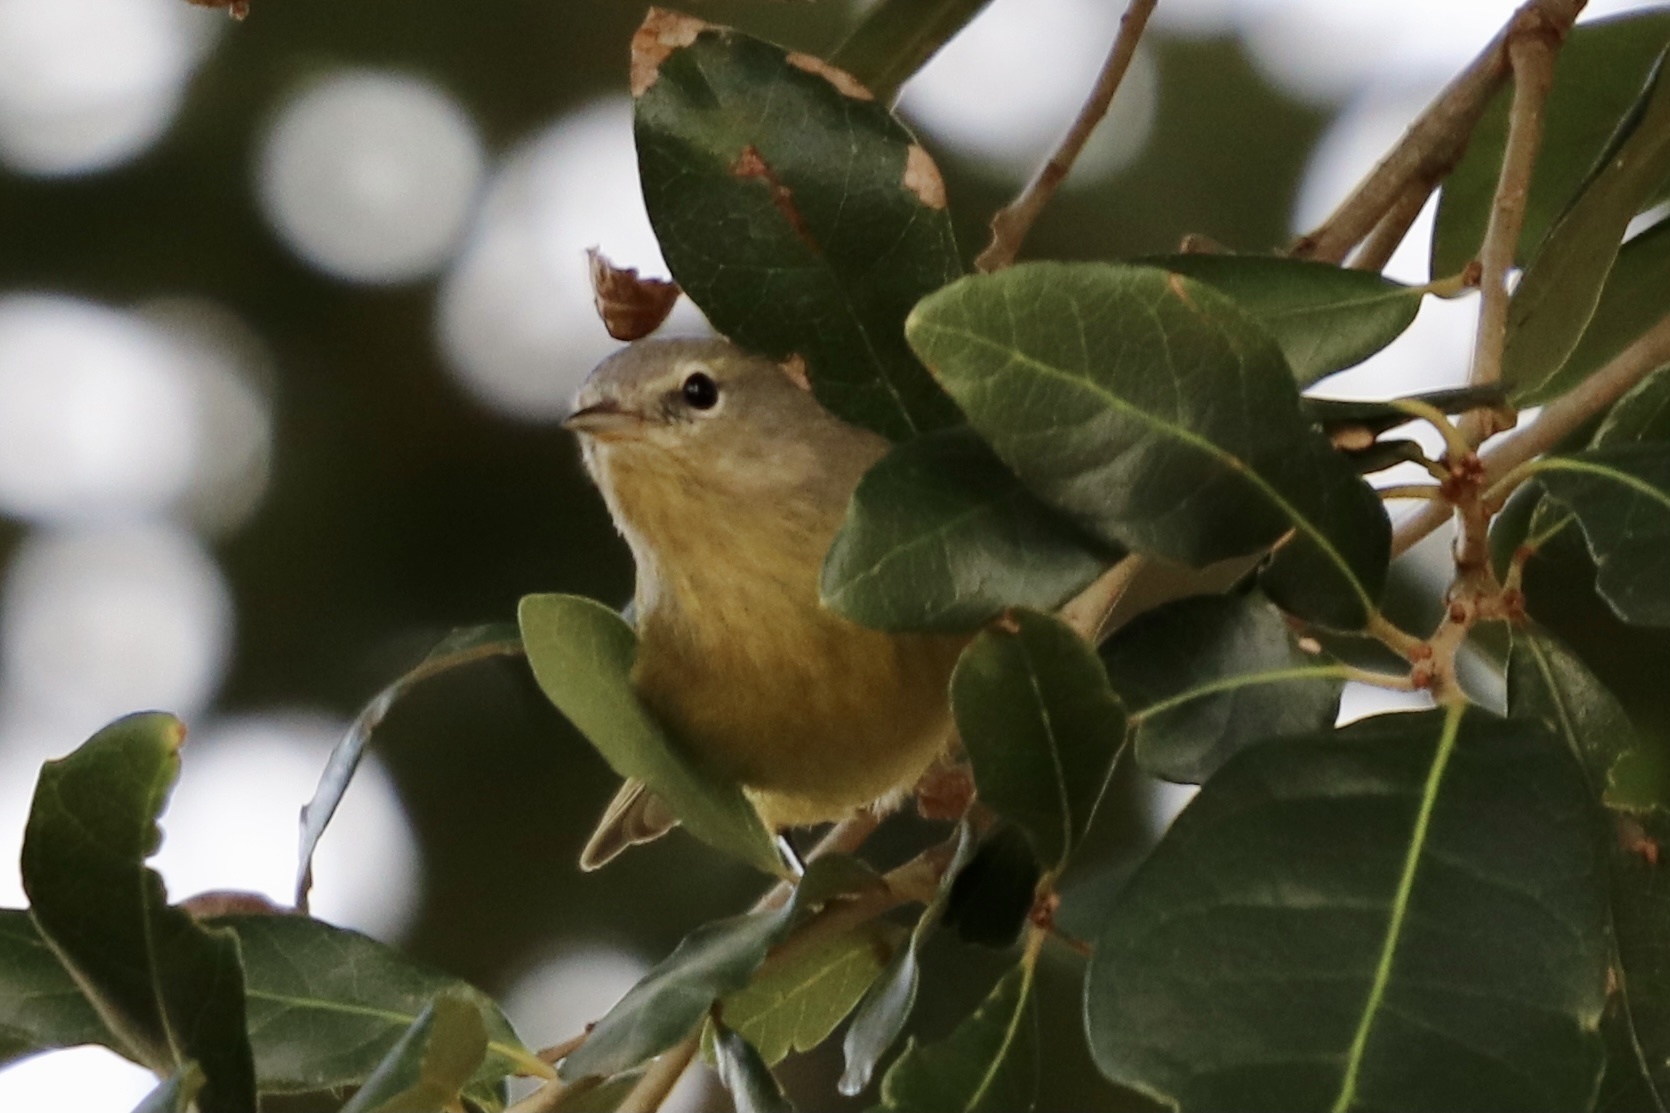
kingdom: Animalia
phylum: Chordata
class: Aves
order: Passeriformes
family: Parulidae
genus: Leiothlypis
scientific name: Leiothlypis celata
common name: Orange-crowned warbler
